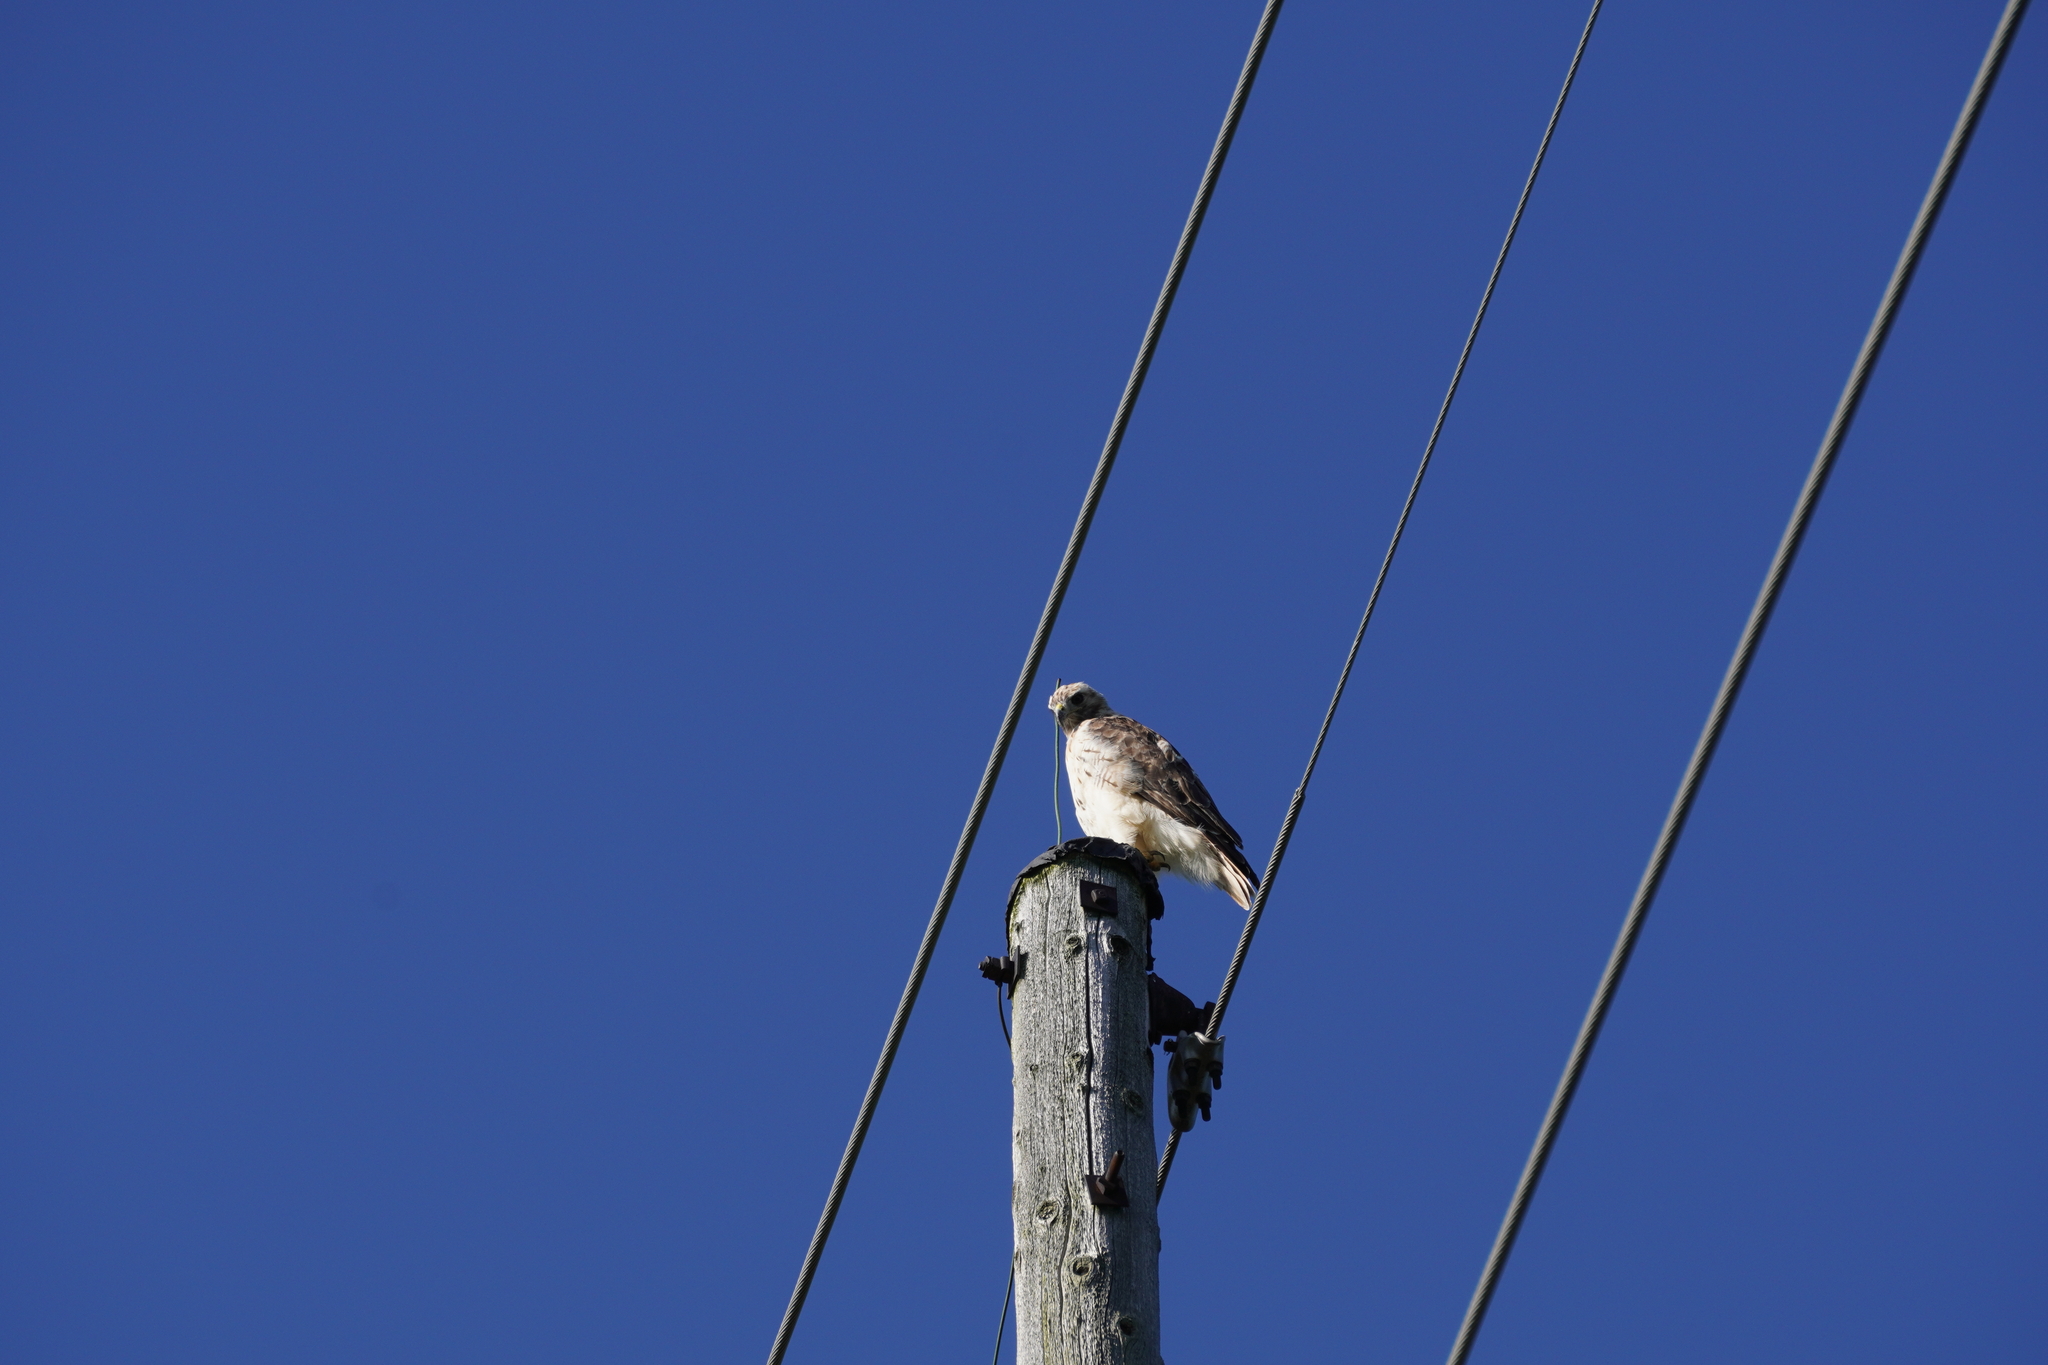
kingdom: Animalia
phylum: Chordata
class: Aves
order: Accipitriformes
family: Accipitridae
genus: Buteo
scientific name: Buteo jamaicensis
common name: Red-tailed hawk
